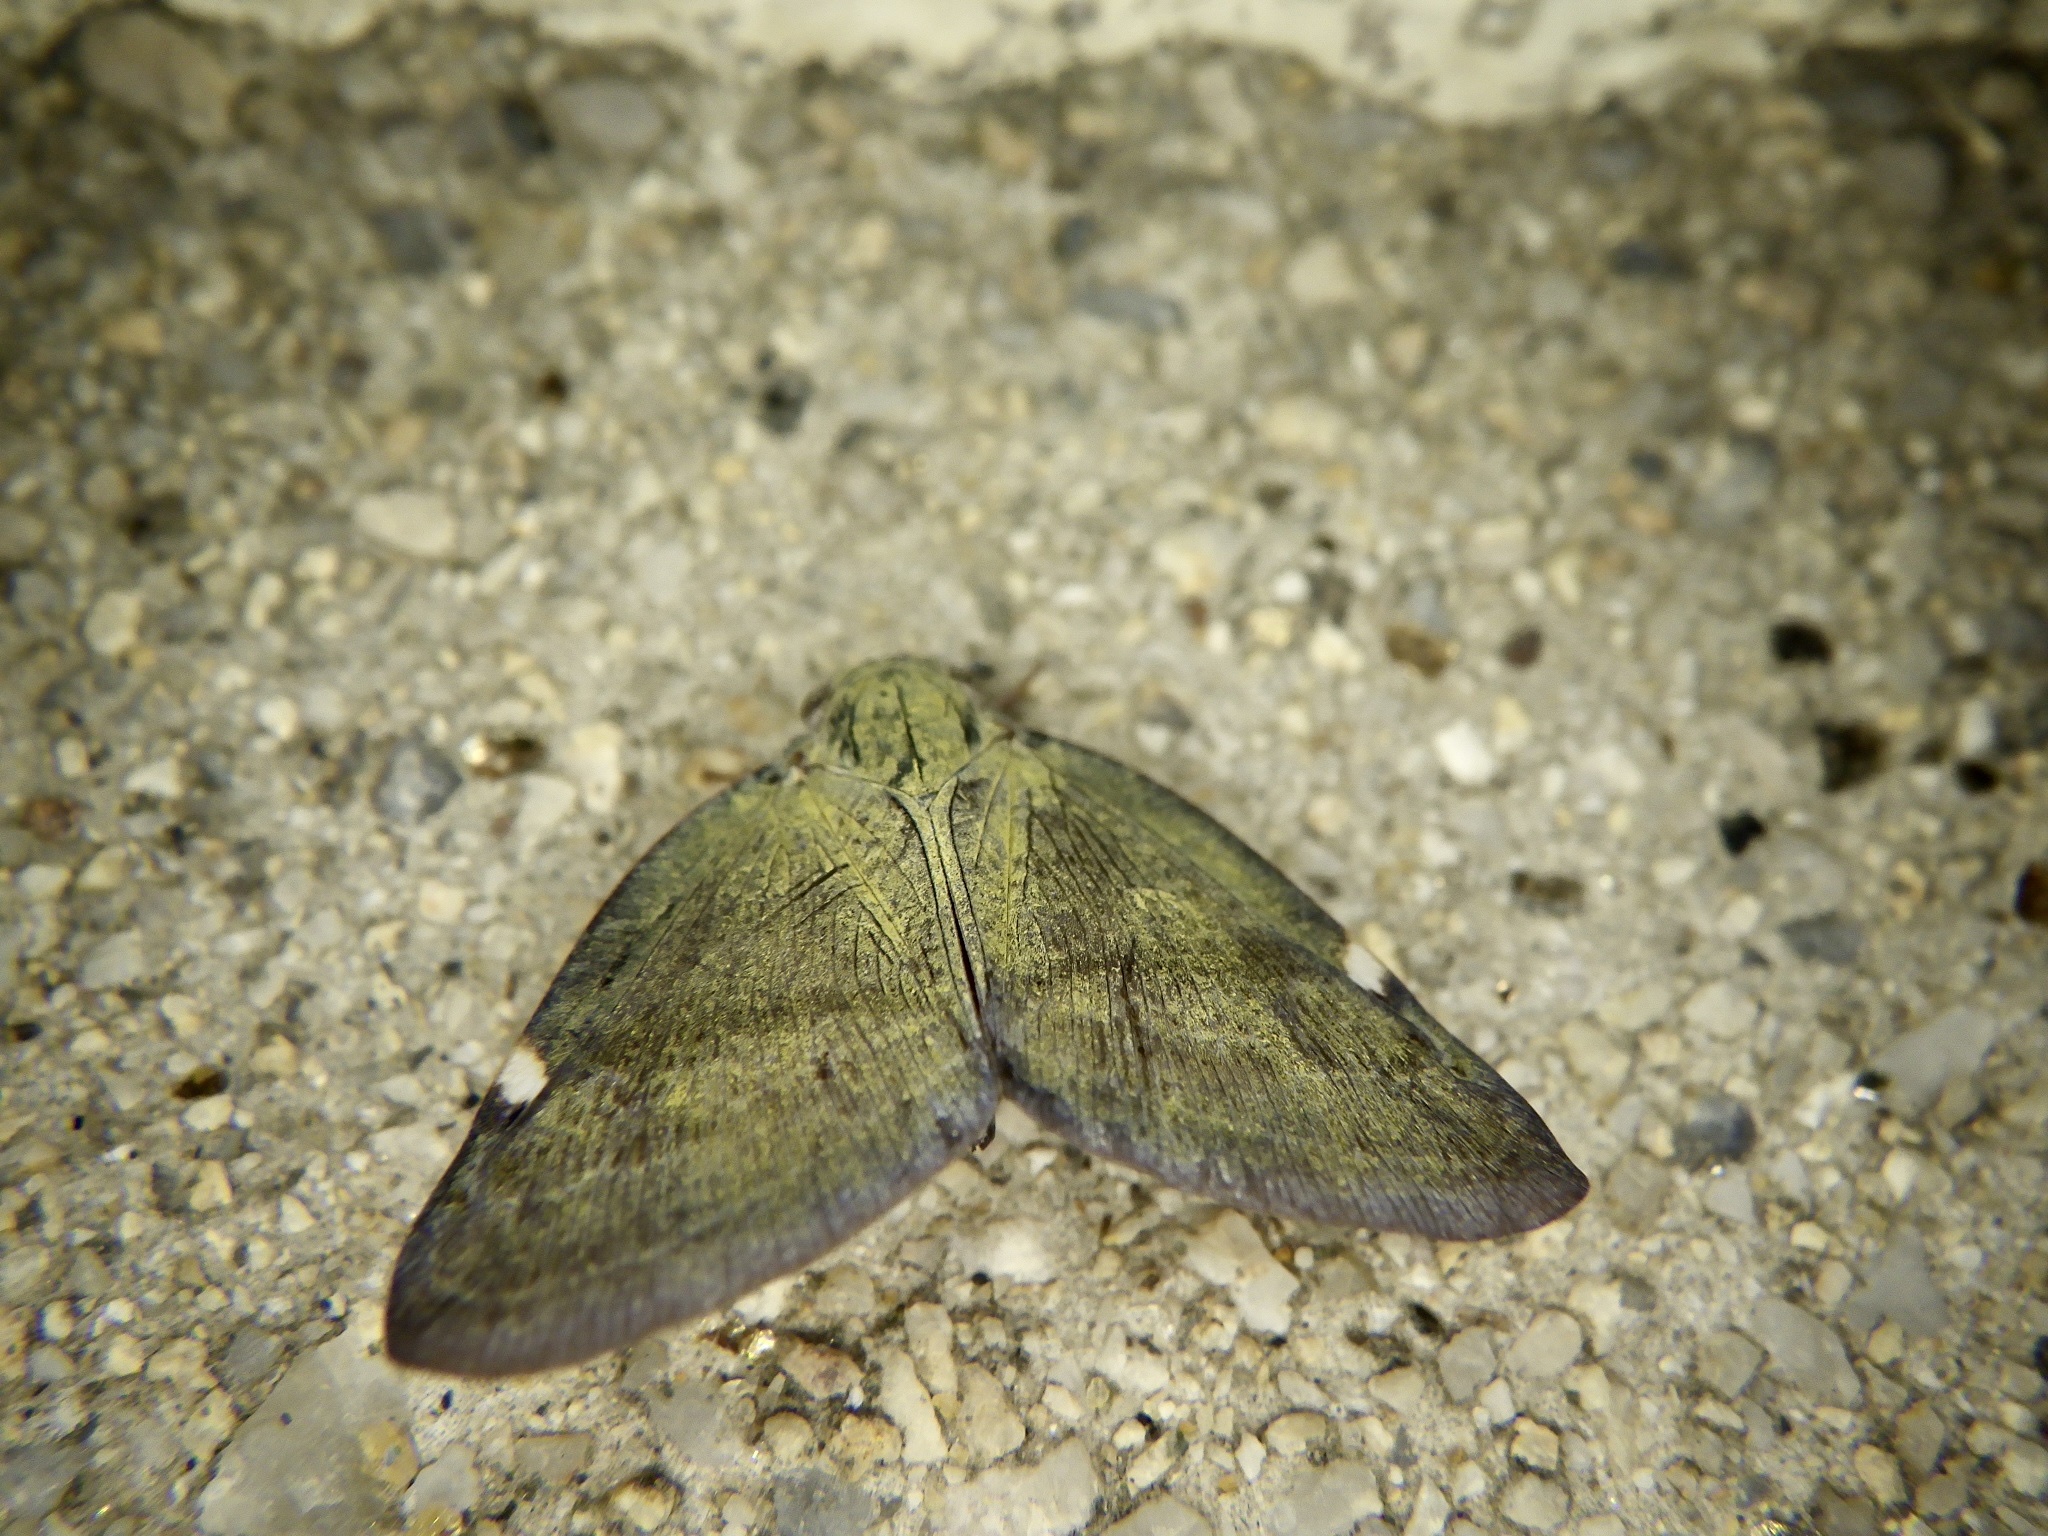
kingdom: Animalia
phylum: Arthropoda
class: Insecta
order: Hemiptera
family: Ricaniidae
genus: Pochazia
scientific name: Pochazia albomaculata
